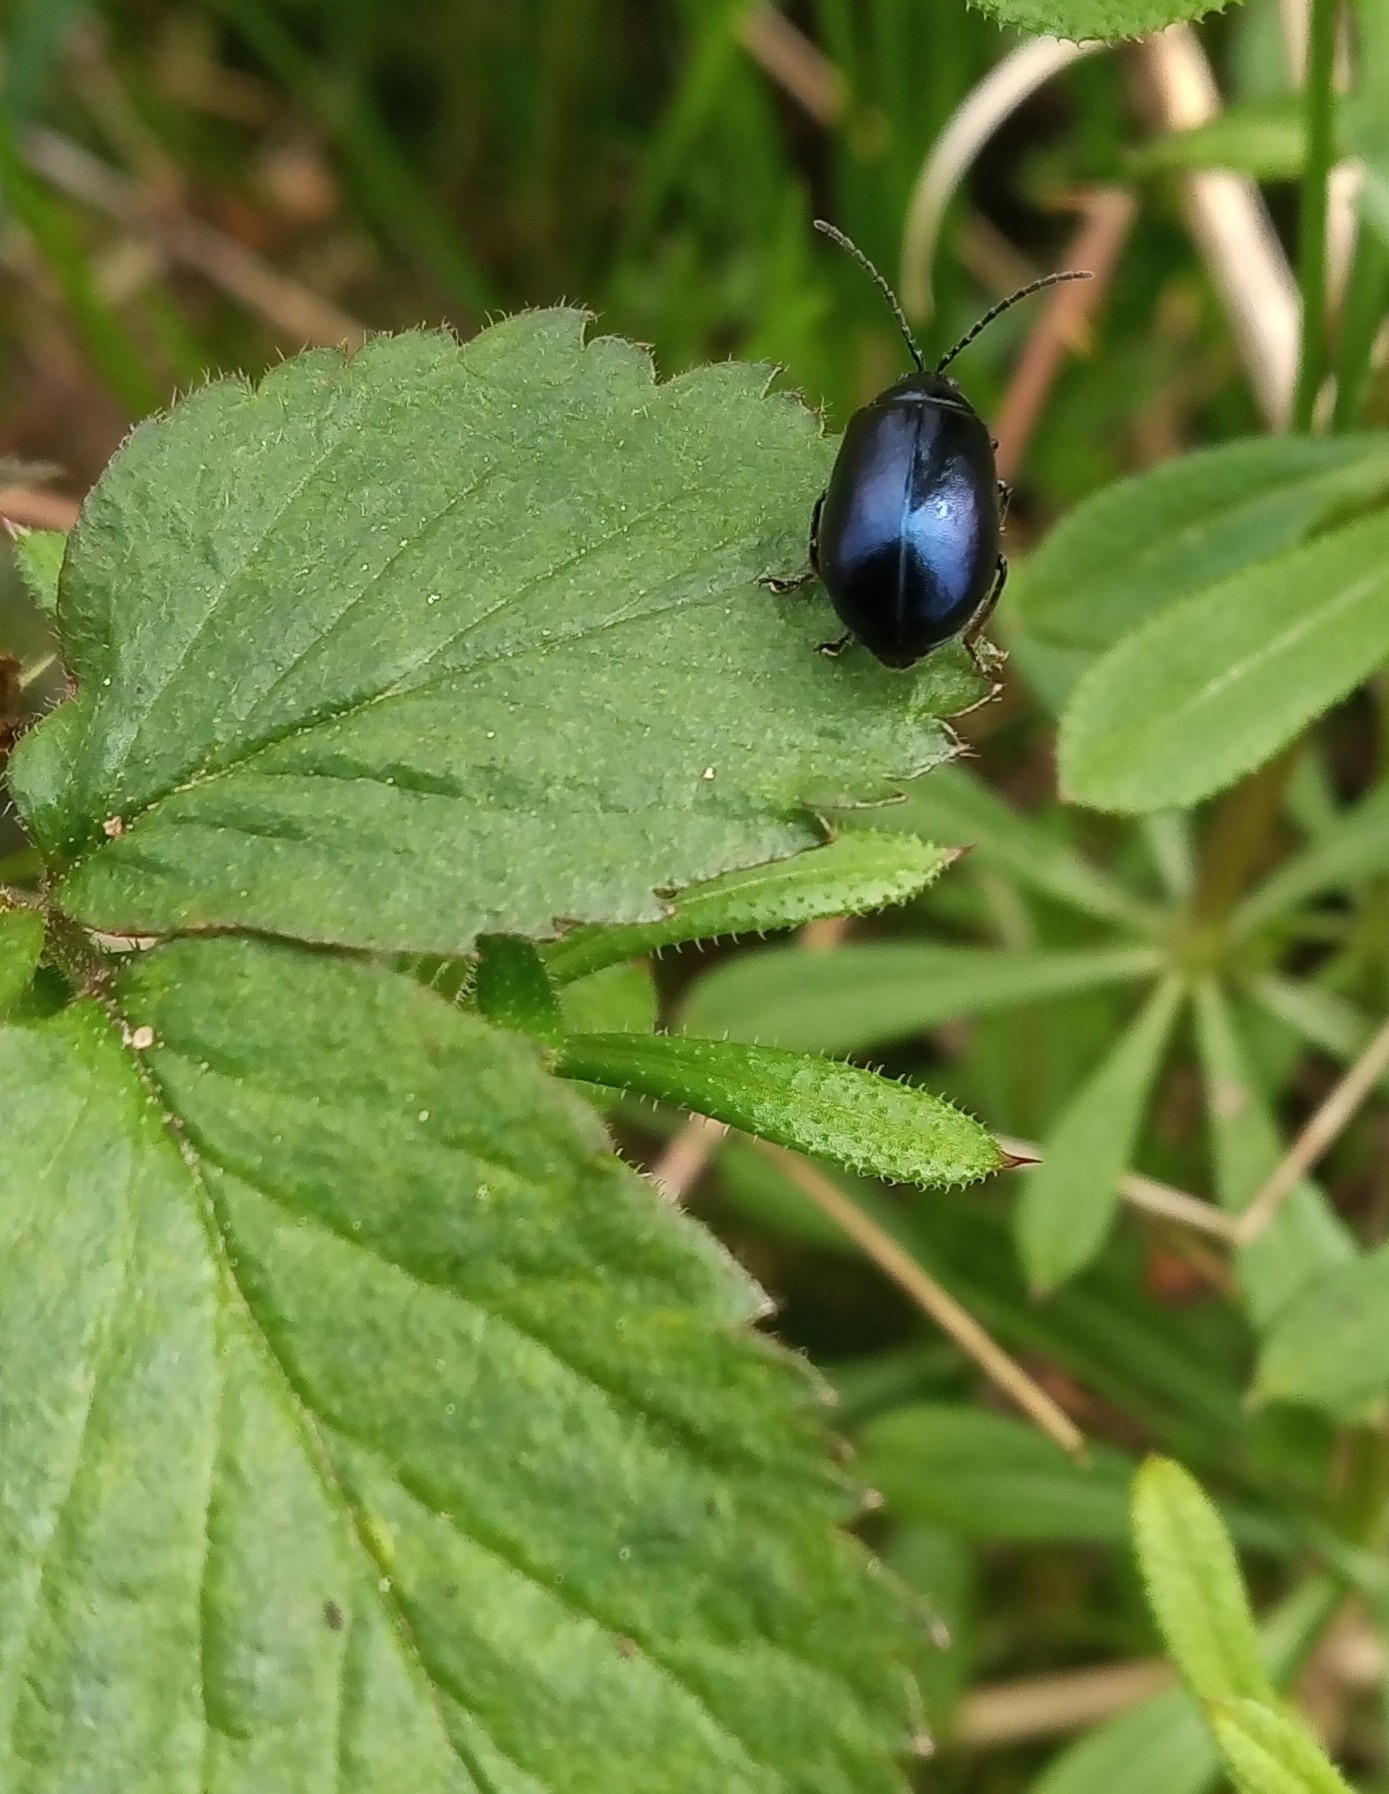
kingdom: Animalia
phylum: Arthropoda
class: Insecta
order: Coleoptera
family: Chrysomelidae
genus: Agelastica
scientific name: Agelastica alni
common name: Alder leaf beetle
